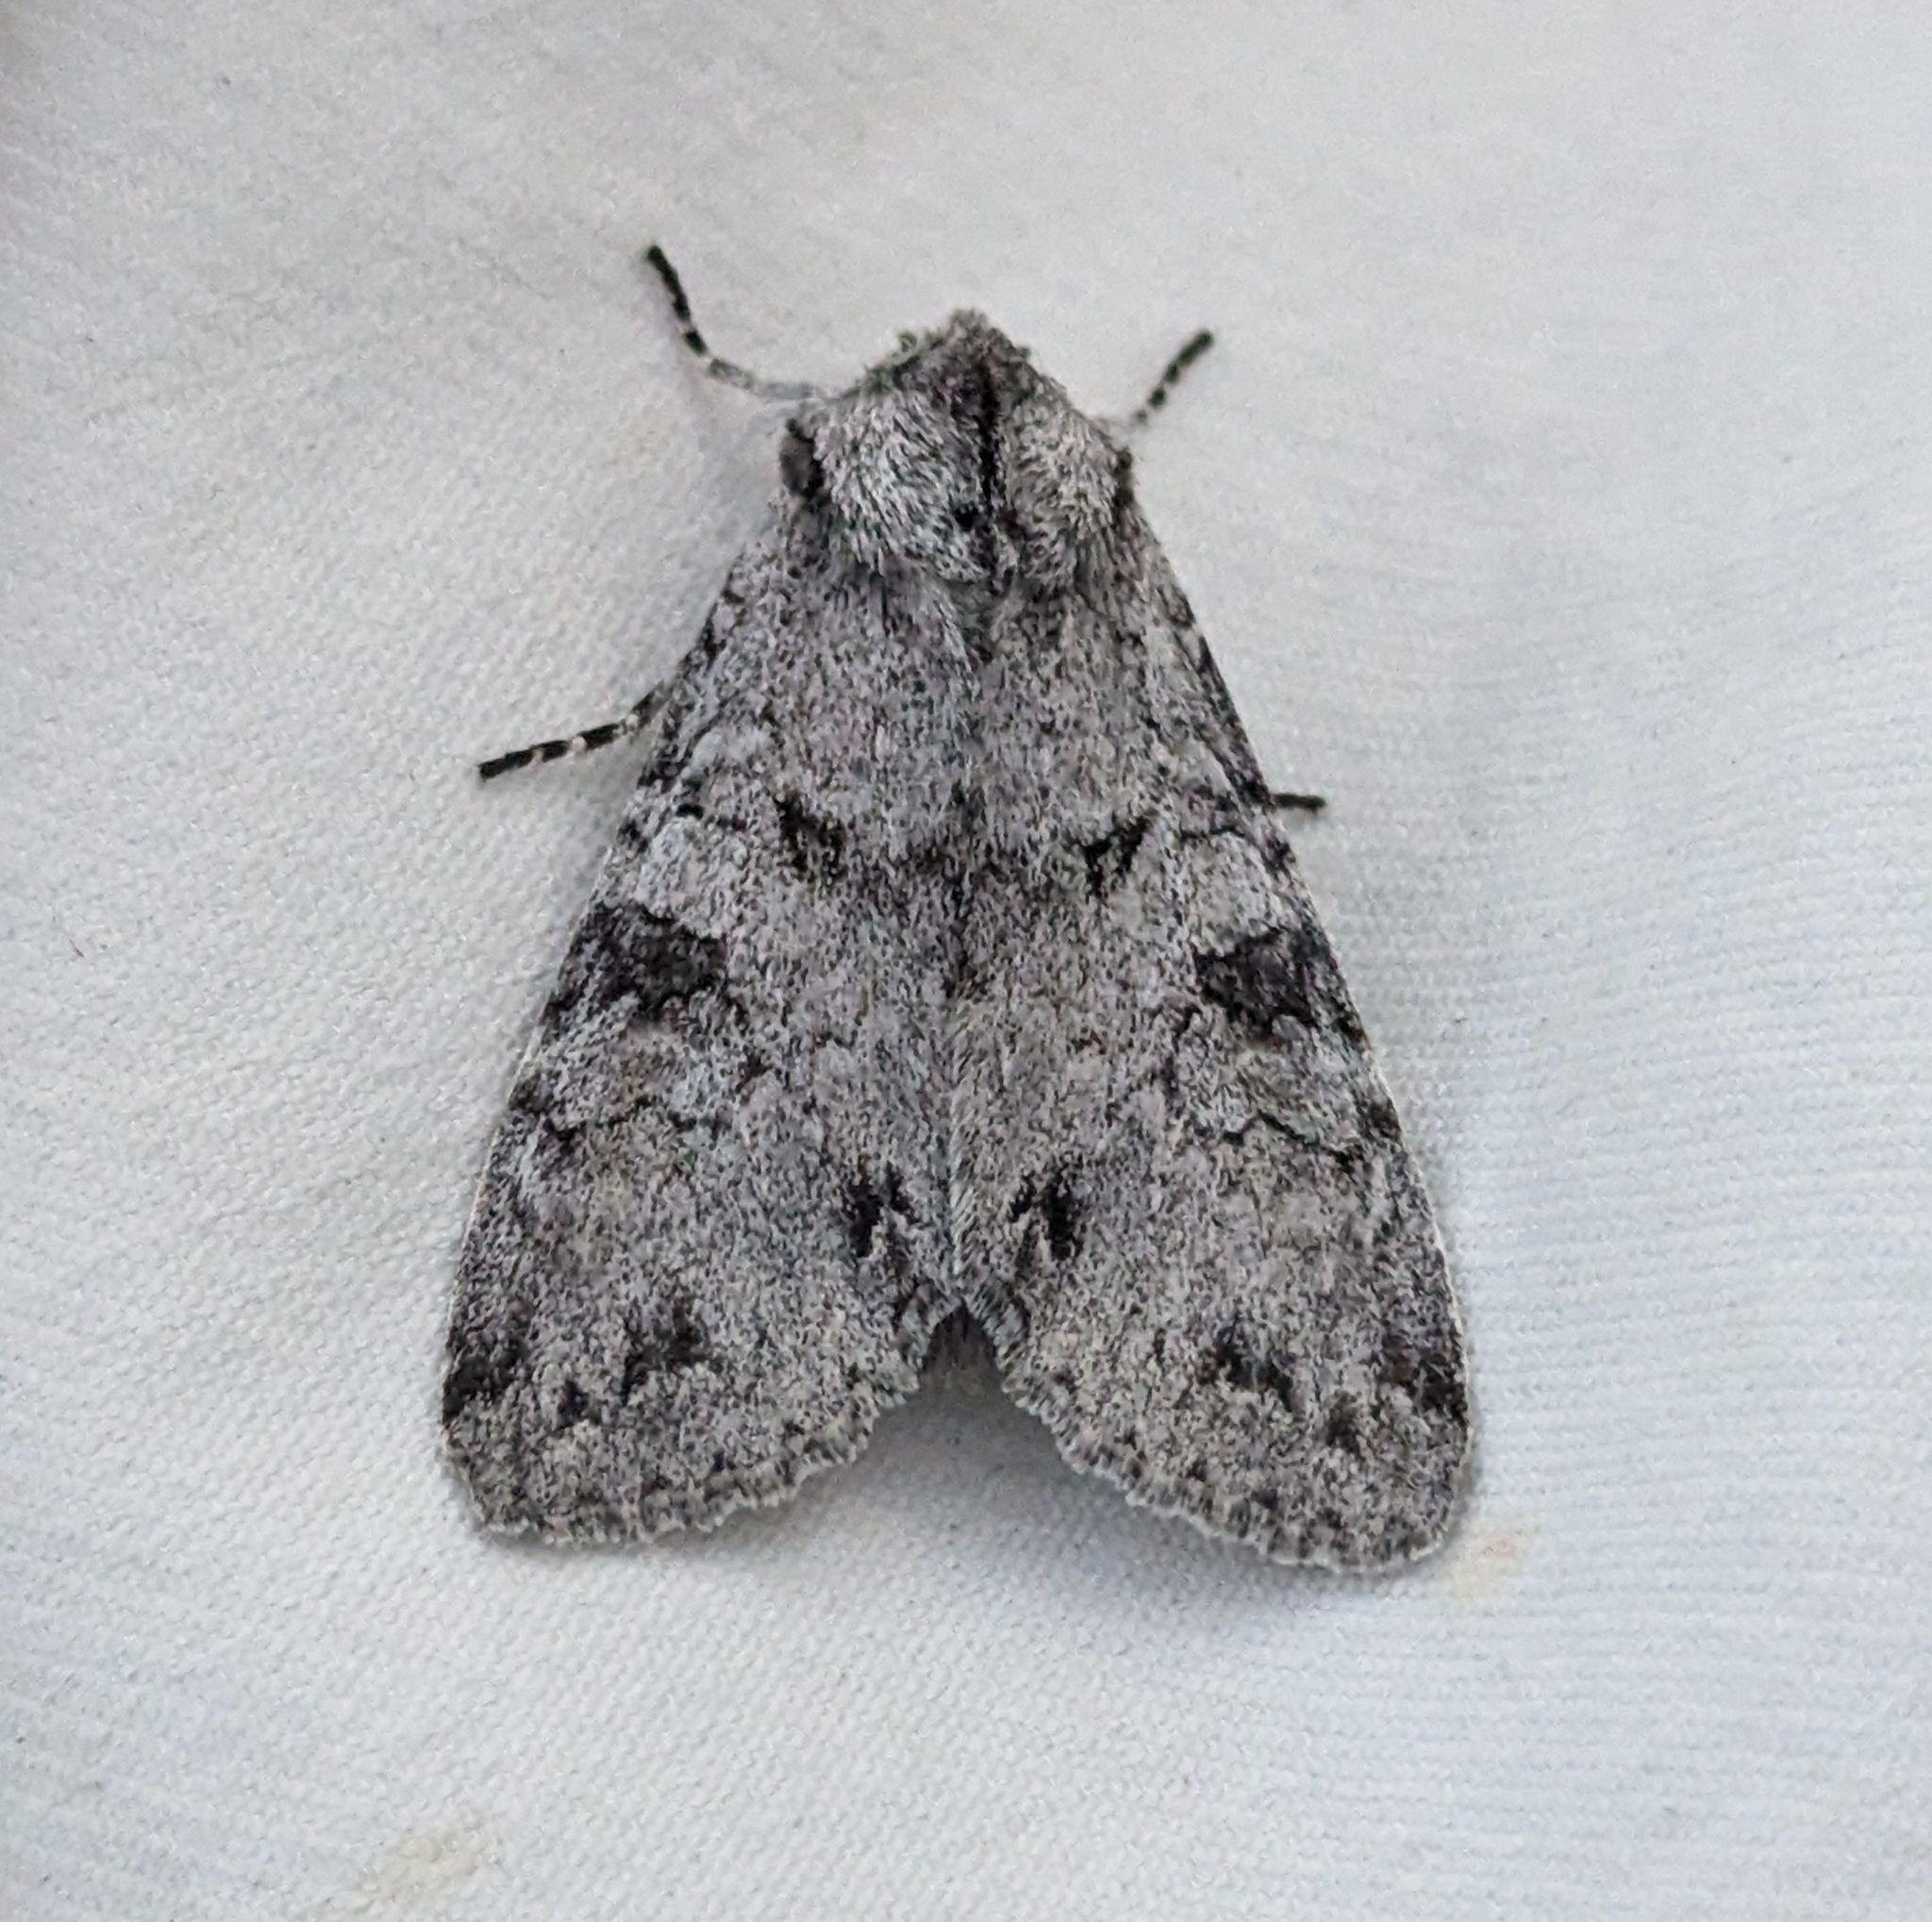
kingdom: Animalia
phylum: Arthropoda
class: Insecta
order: Lepidoptera
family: Noctuidae
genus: Polia
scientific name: Polia nimbosa
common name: Stormy arches
